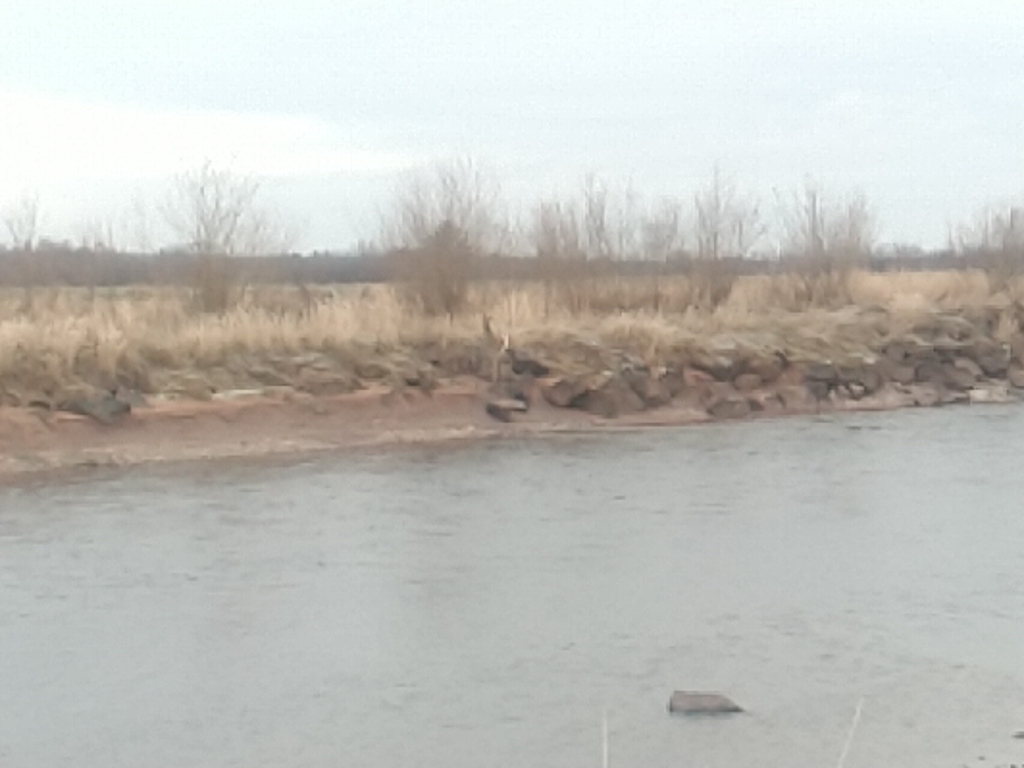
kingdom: Animalia
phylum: Chordata
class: Mammalia
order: Artiodactyla
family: Cervidae
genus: Odocoileus
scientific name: Odocoileus virginianus
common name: White-tailed deer
